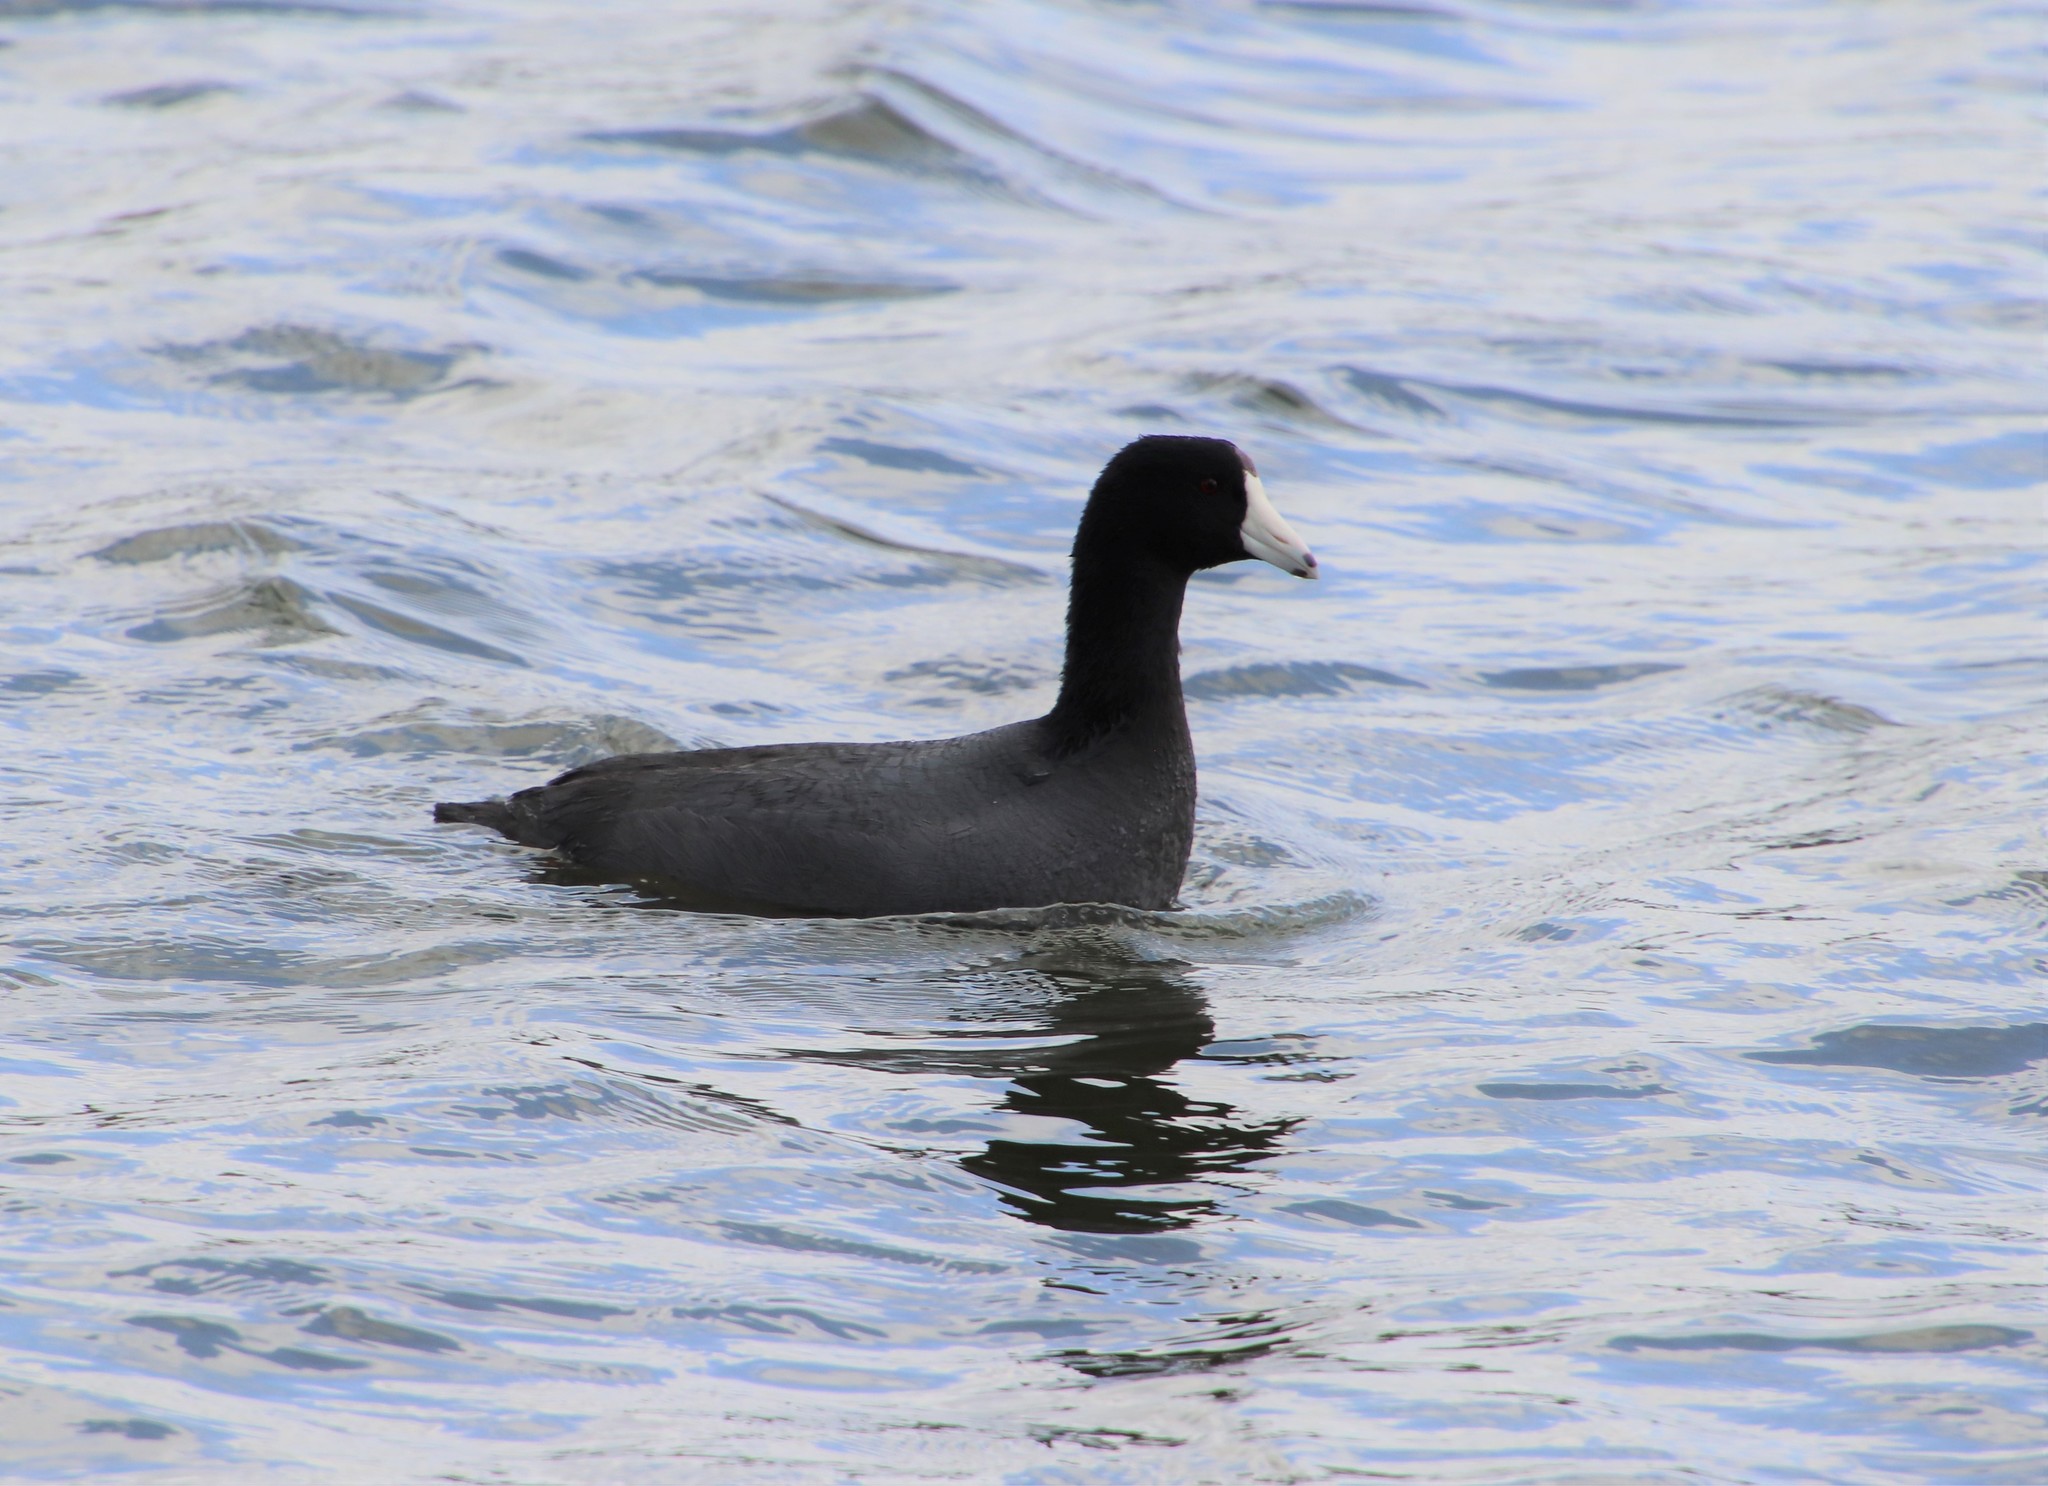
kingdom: Animalia
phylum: Chordata
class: Aves
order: Gruiformes
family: Rallidae
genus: Fulica
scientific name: Fulica americana
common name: American coot
